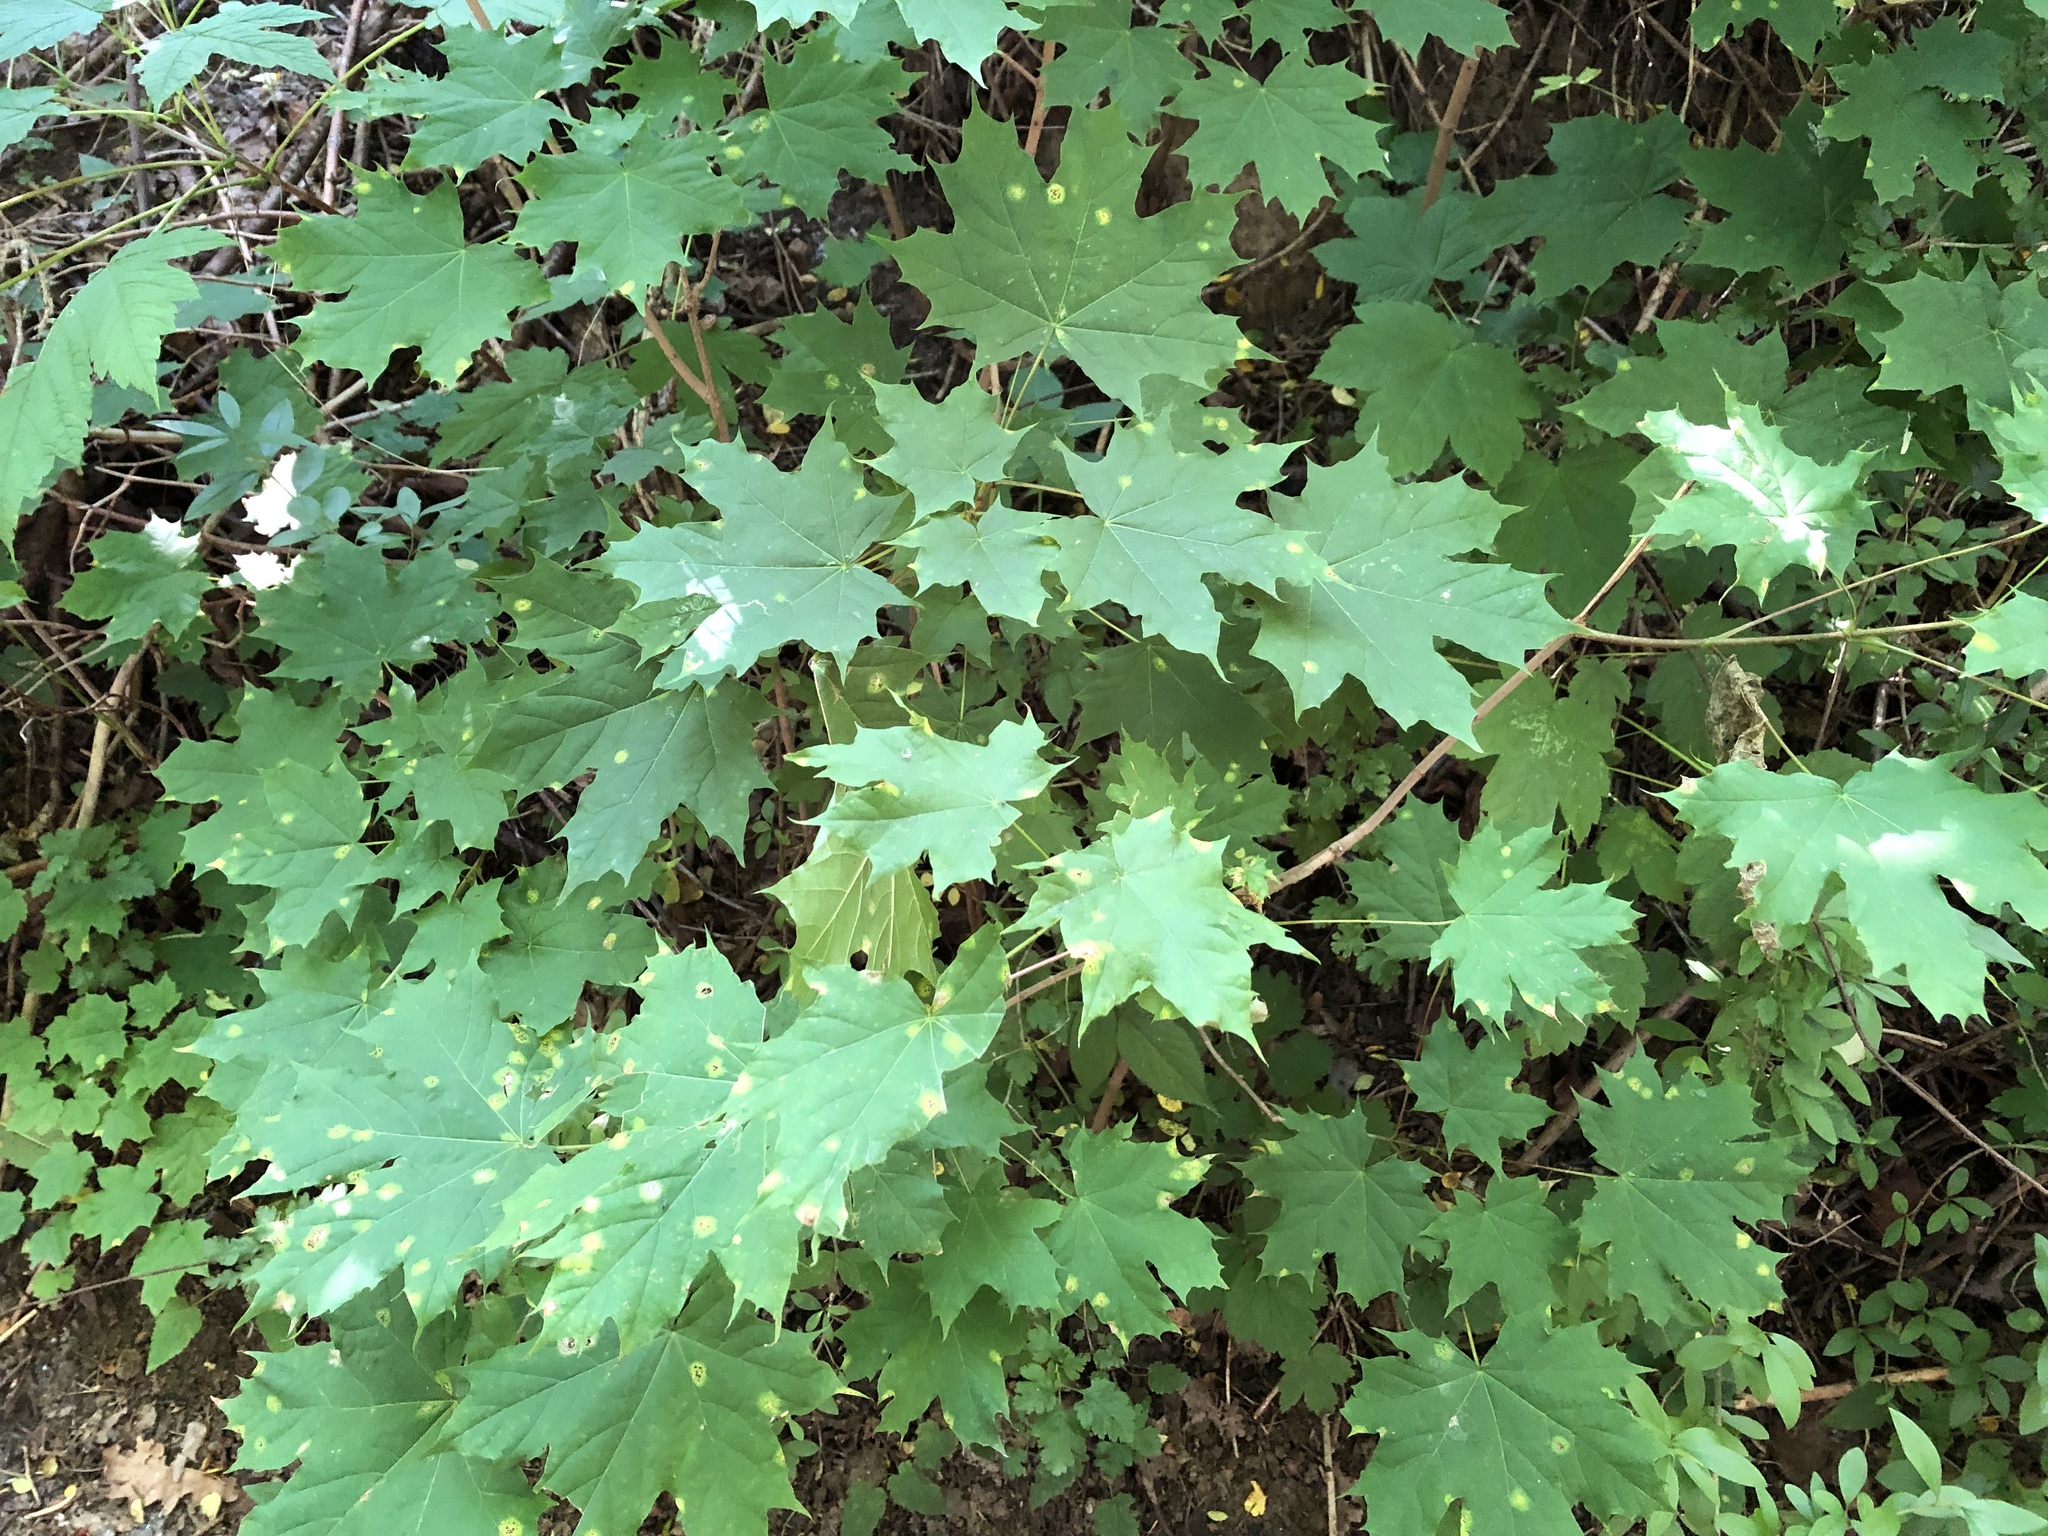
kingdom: Plantae
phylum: Tracheophyta
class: Magnoliopsida
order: Sapindales
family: Sapindaceae
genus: Acer
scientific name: Acer platanoides
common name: Norway maple
